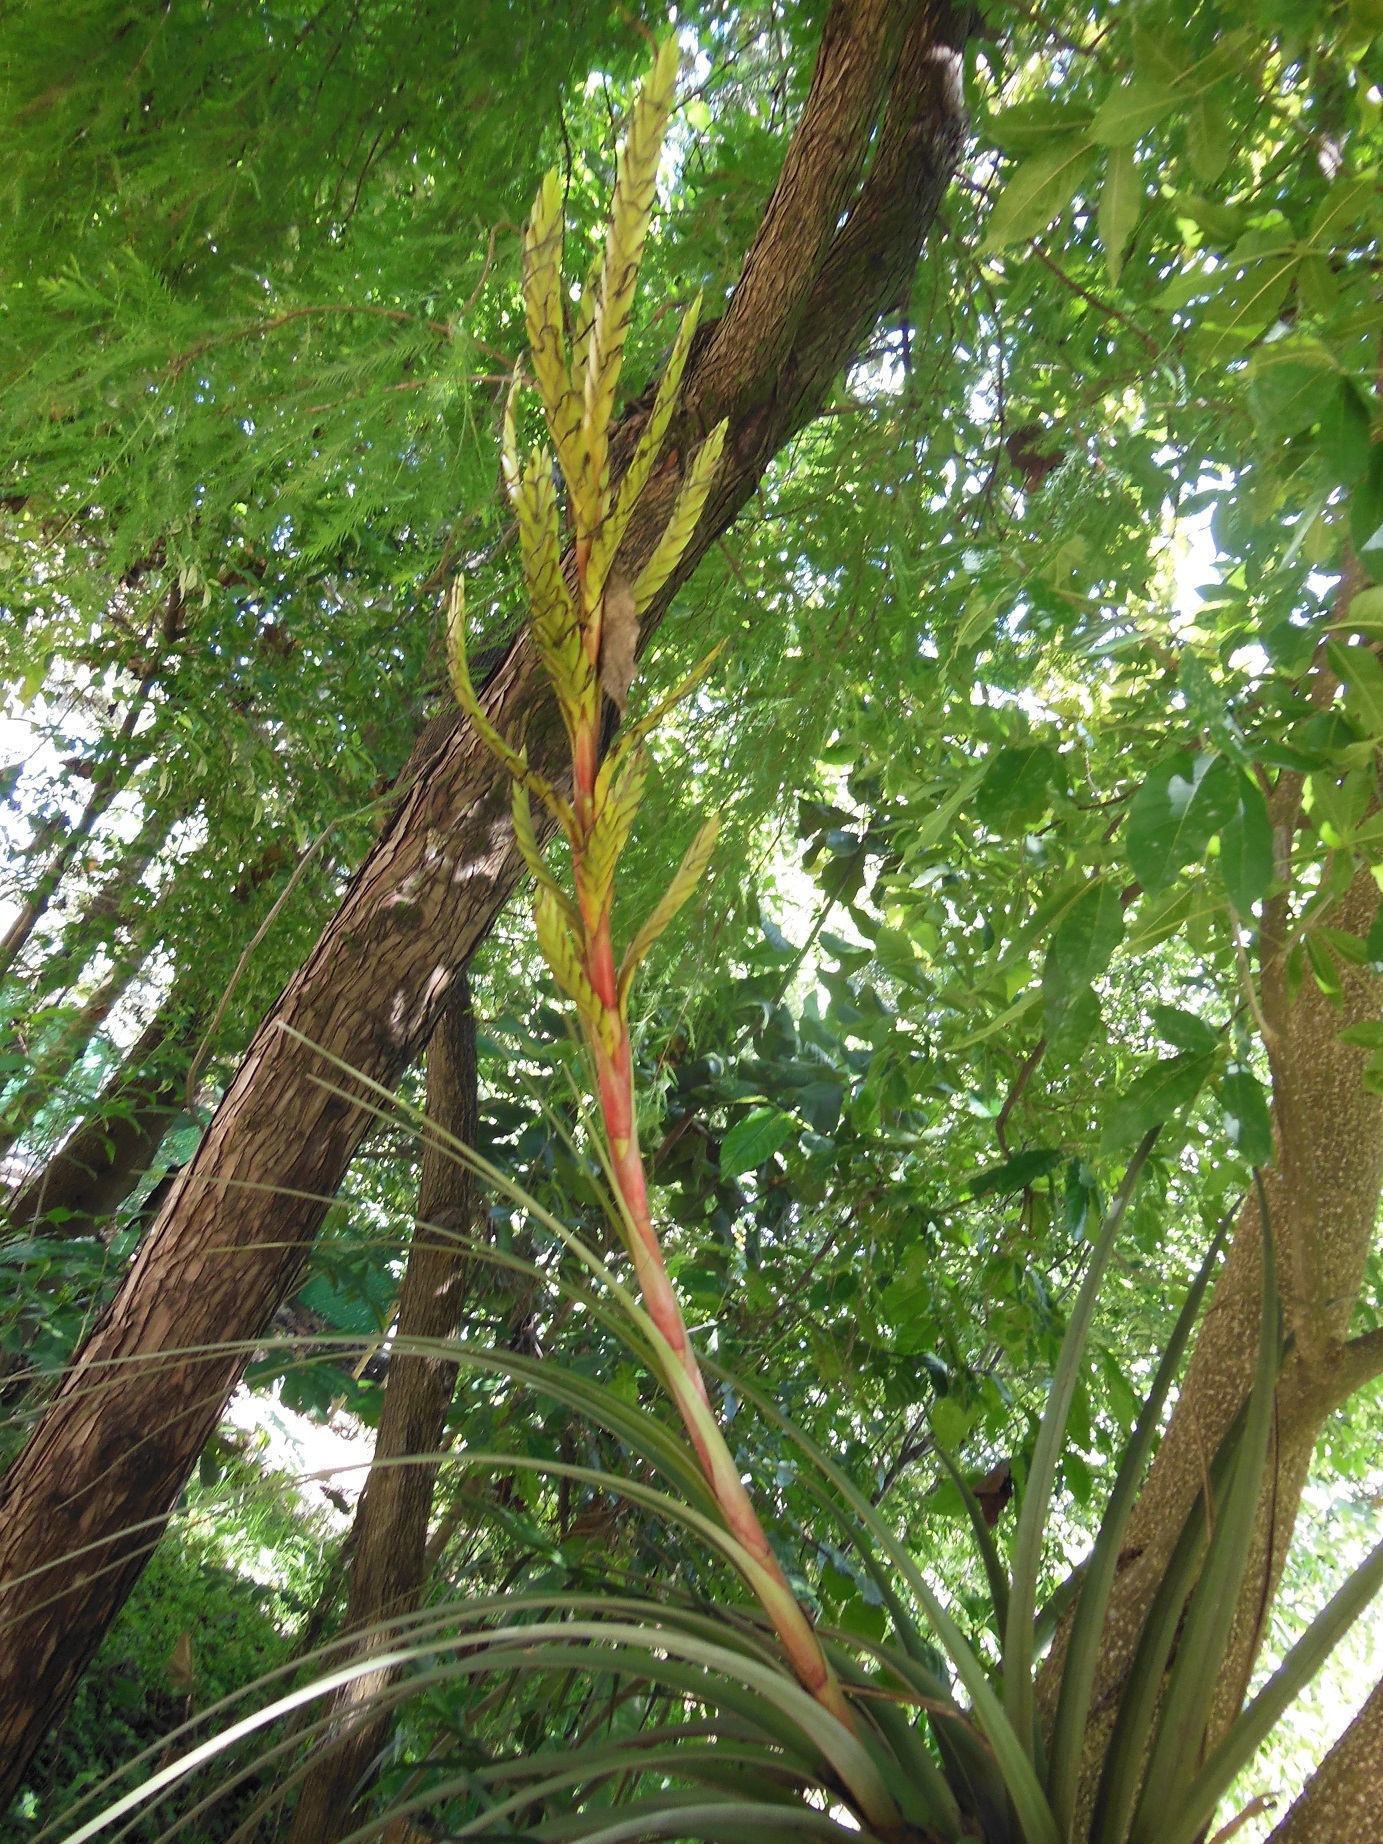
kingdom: Plantae
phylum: Tracheophyta
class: Liliopsida
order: Poales
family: Bromeliaceae
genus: Tillandsia
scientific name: Tillandsia rodrigueziana
